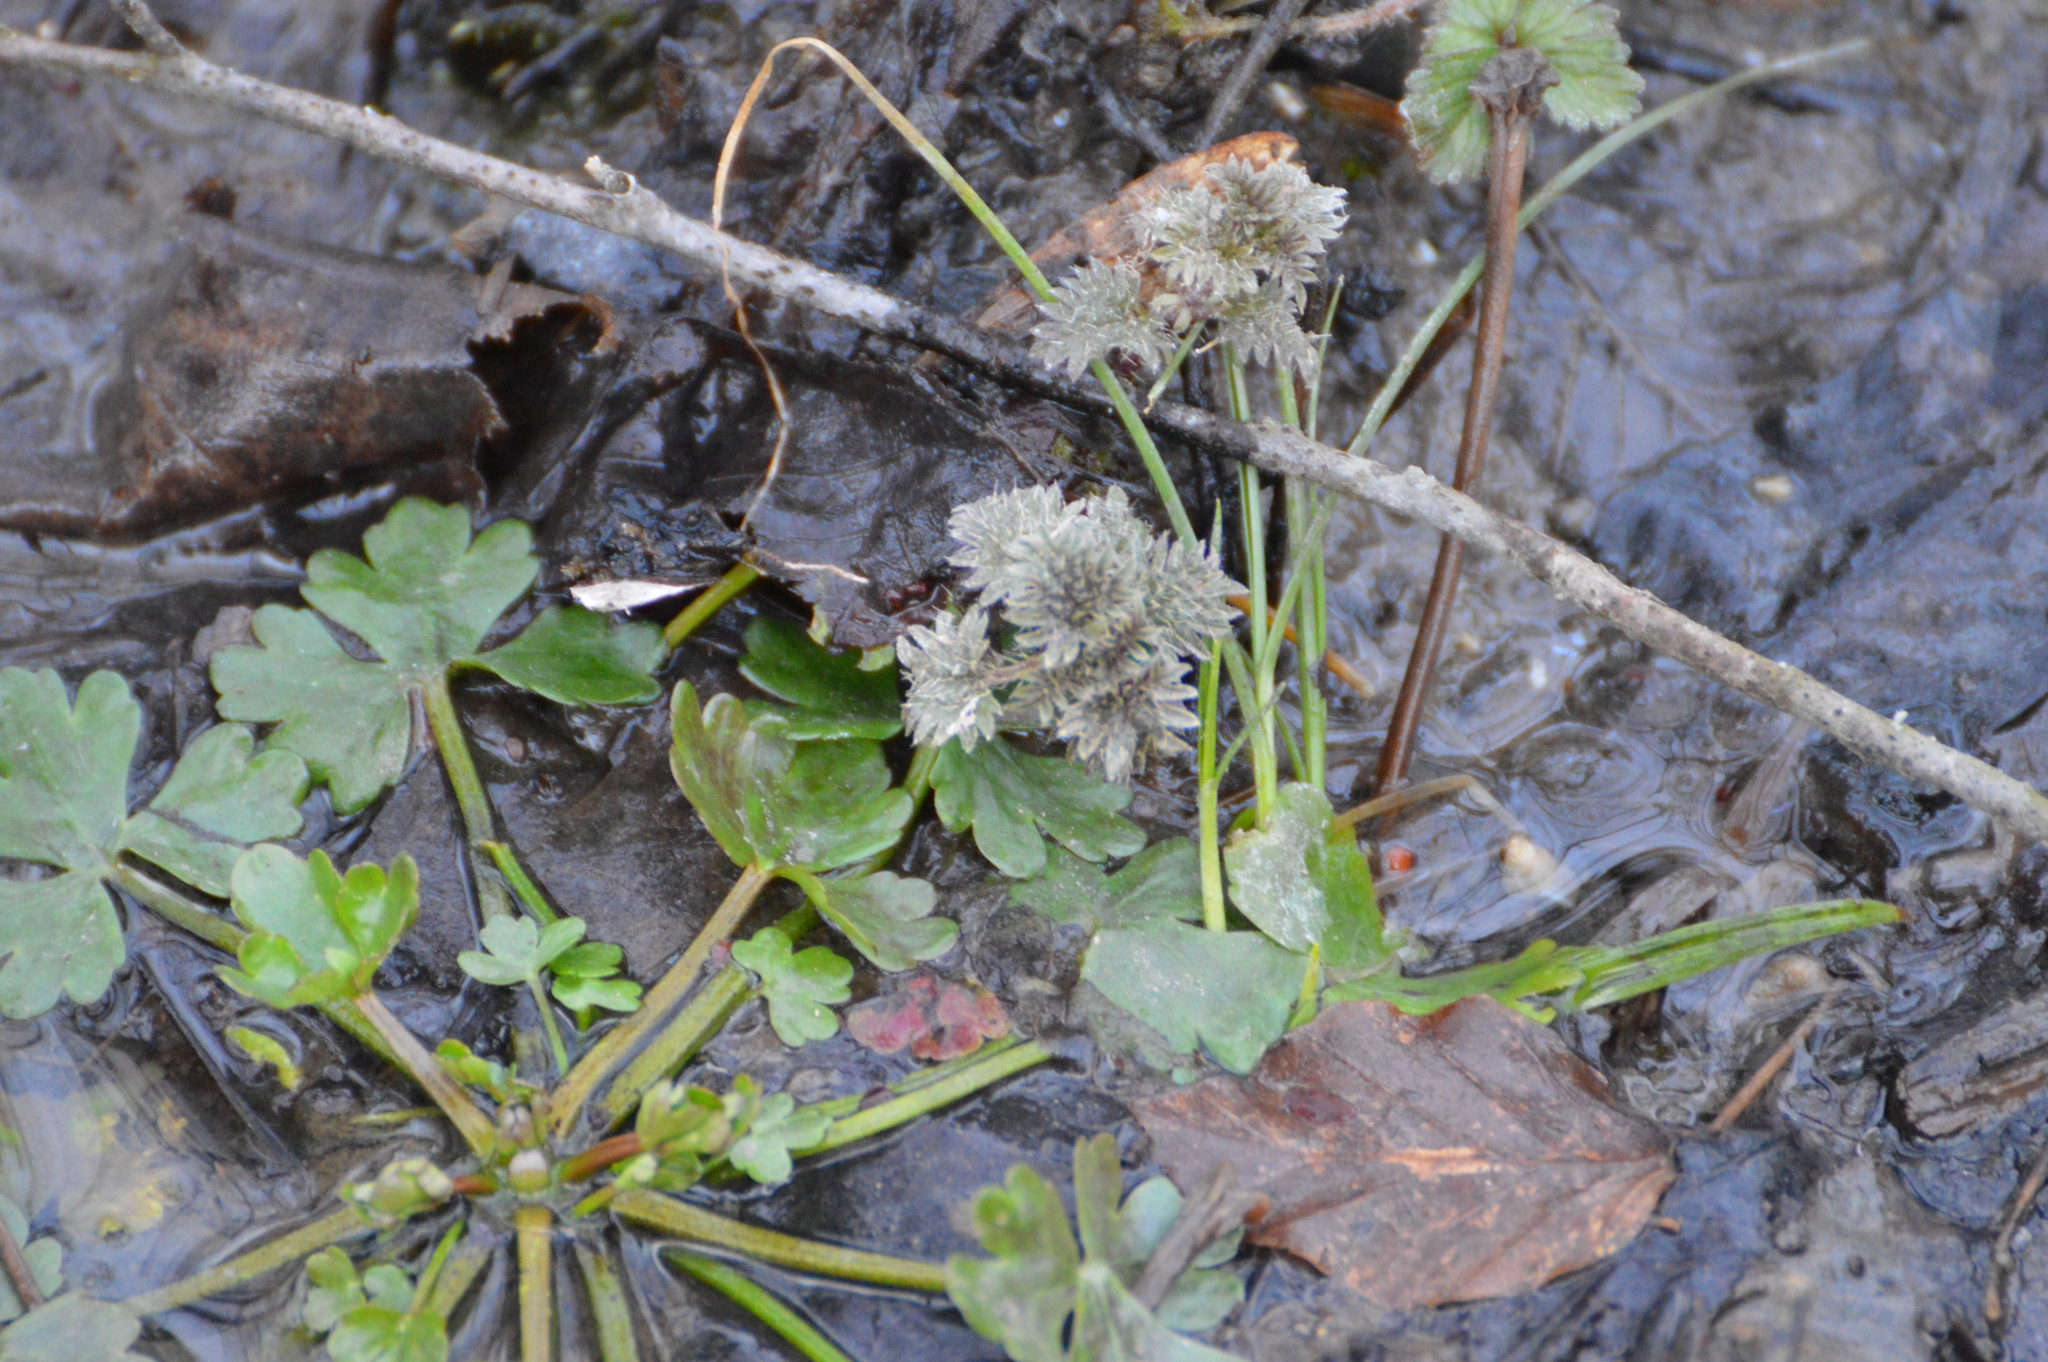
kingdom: Plantae
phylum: Tracheophyta
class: Magnoliopsida
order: Rosales
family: Urticaceae
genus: Urtica
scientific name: Urtica dioica
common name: Common nettle
